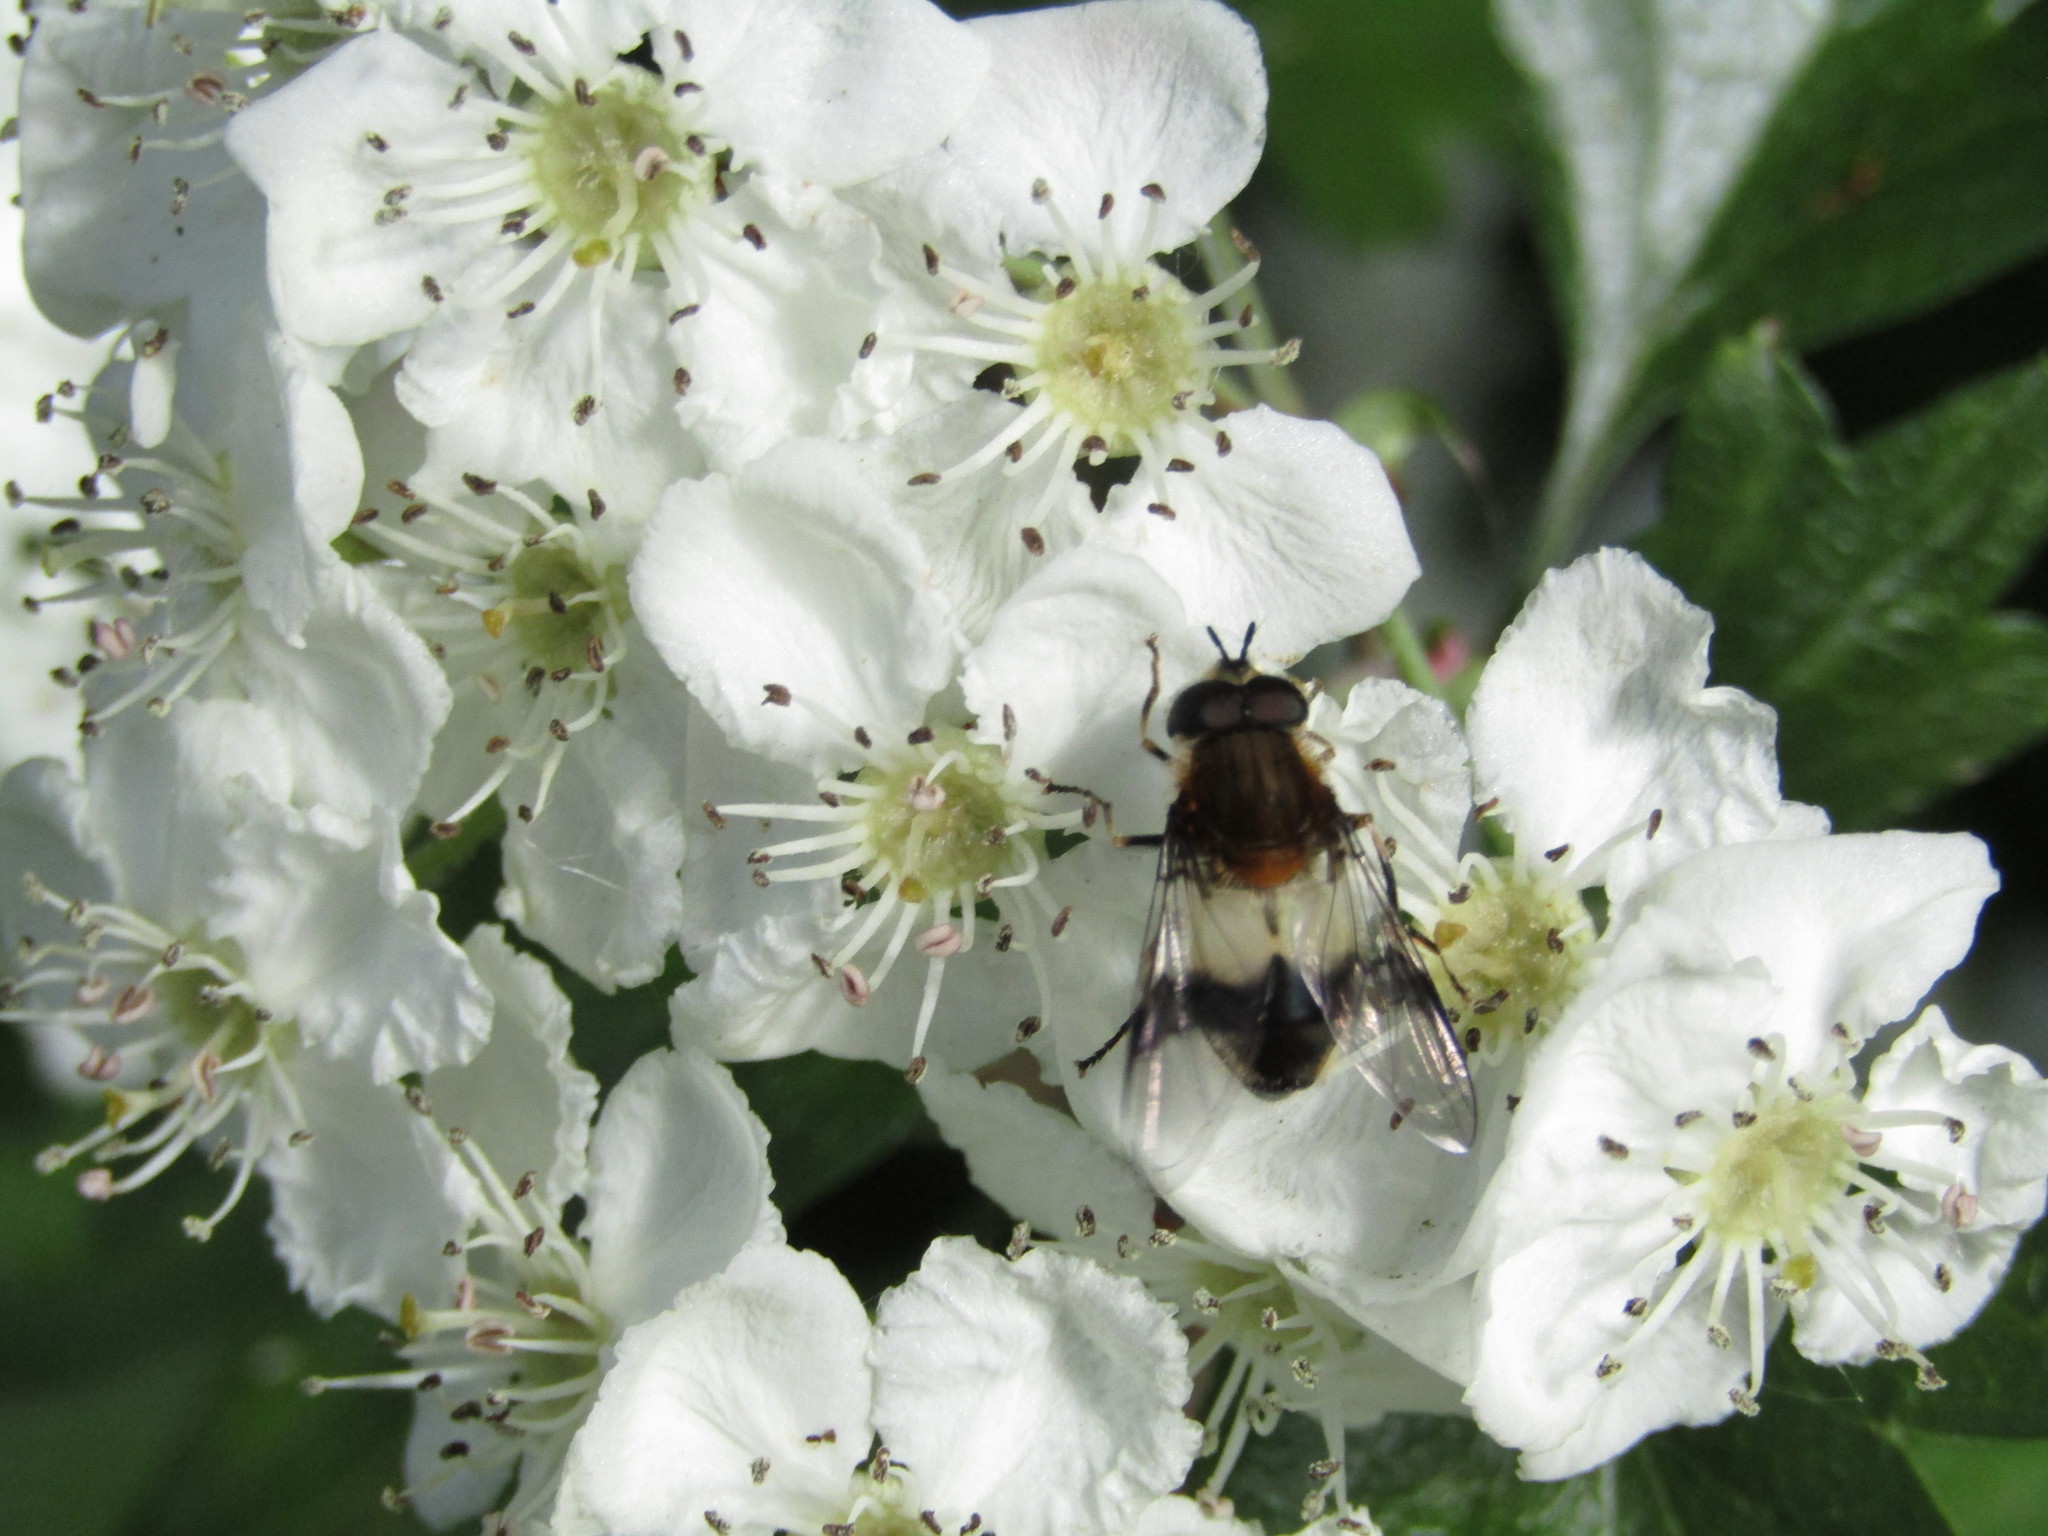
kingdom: Animalia
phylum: Arthropoda
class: Insecta
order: Diptera
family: Syrphidae
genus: Leucozona
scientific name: Leucozona lucorum
